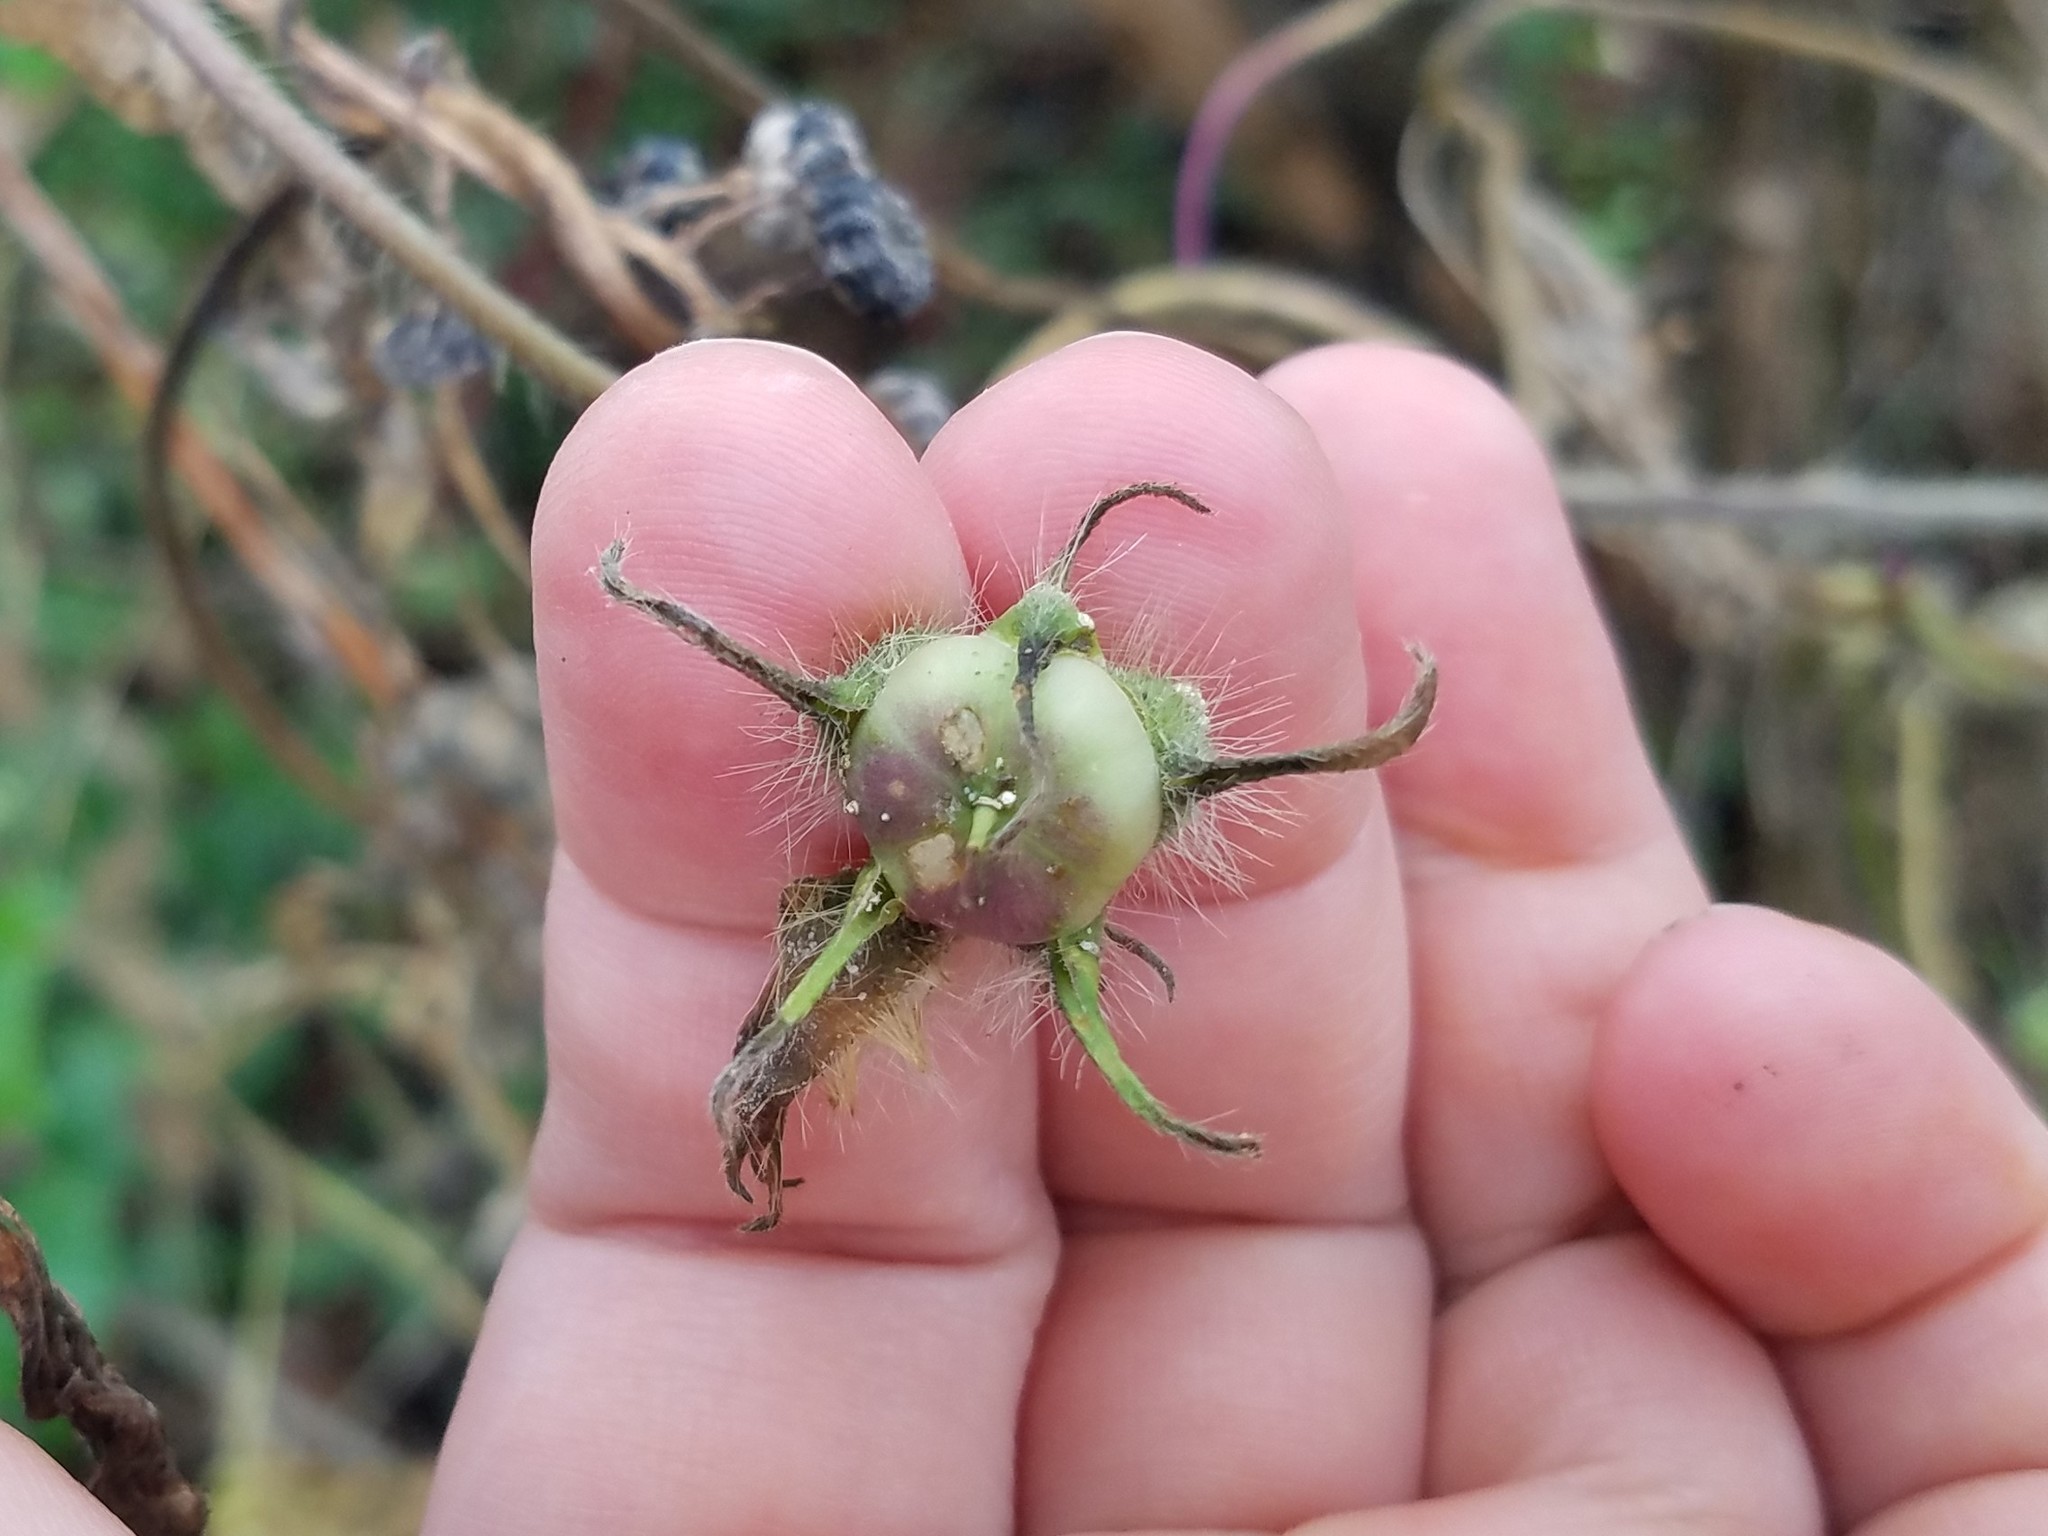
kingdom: Plantae
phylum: Tracheophyta
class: Magnoliopsida
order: Solanales
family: Convolvulaceae
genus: Ipomoea
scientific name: Ipomoea hederacea
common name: Ivy-leaved morning-glory
